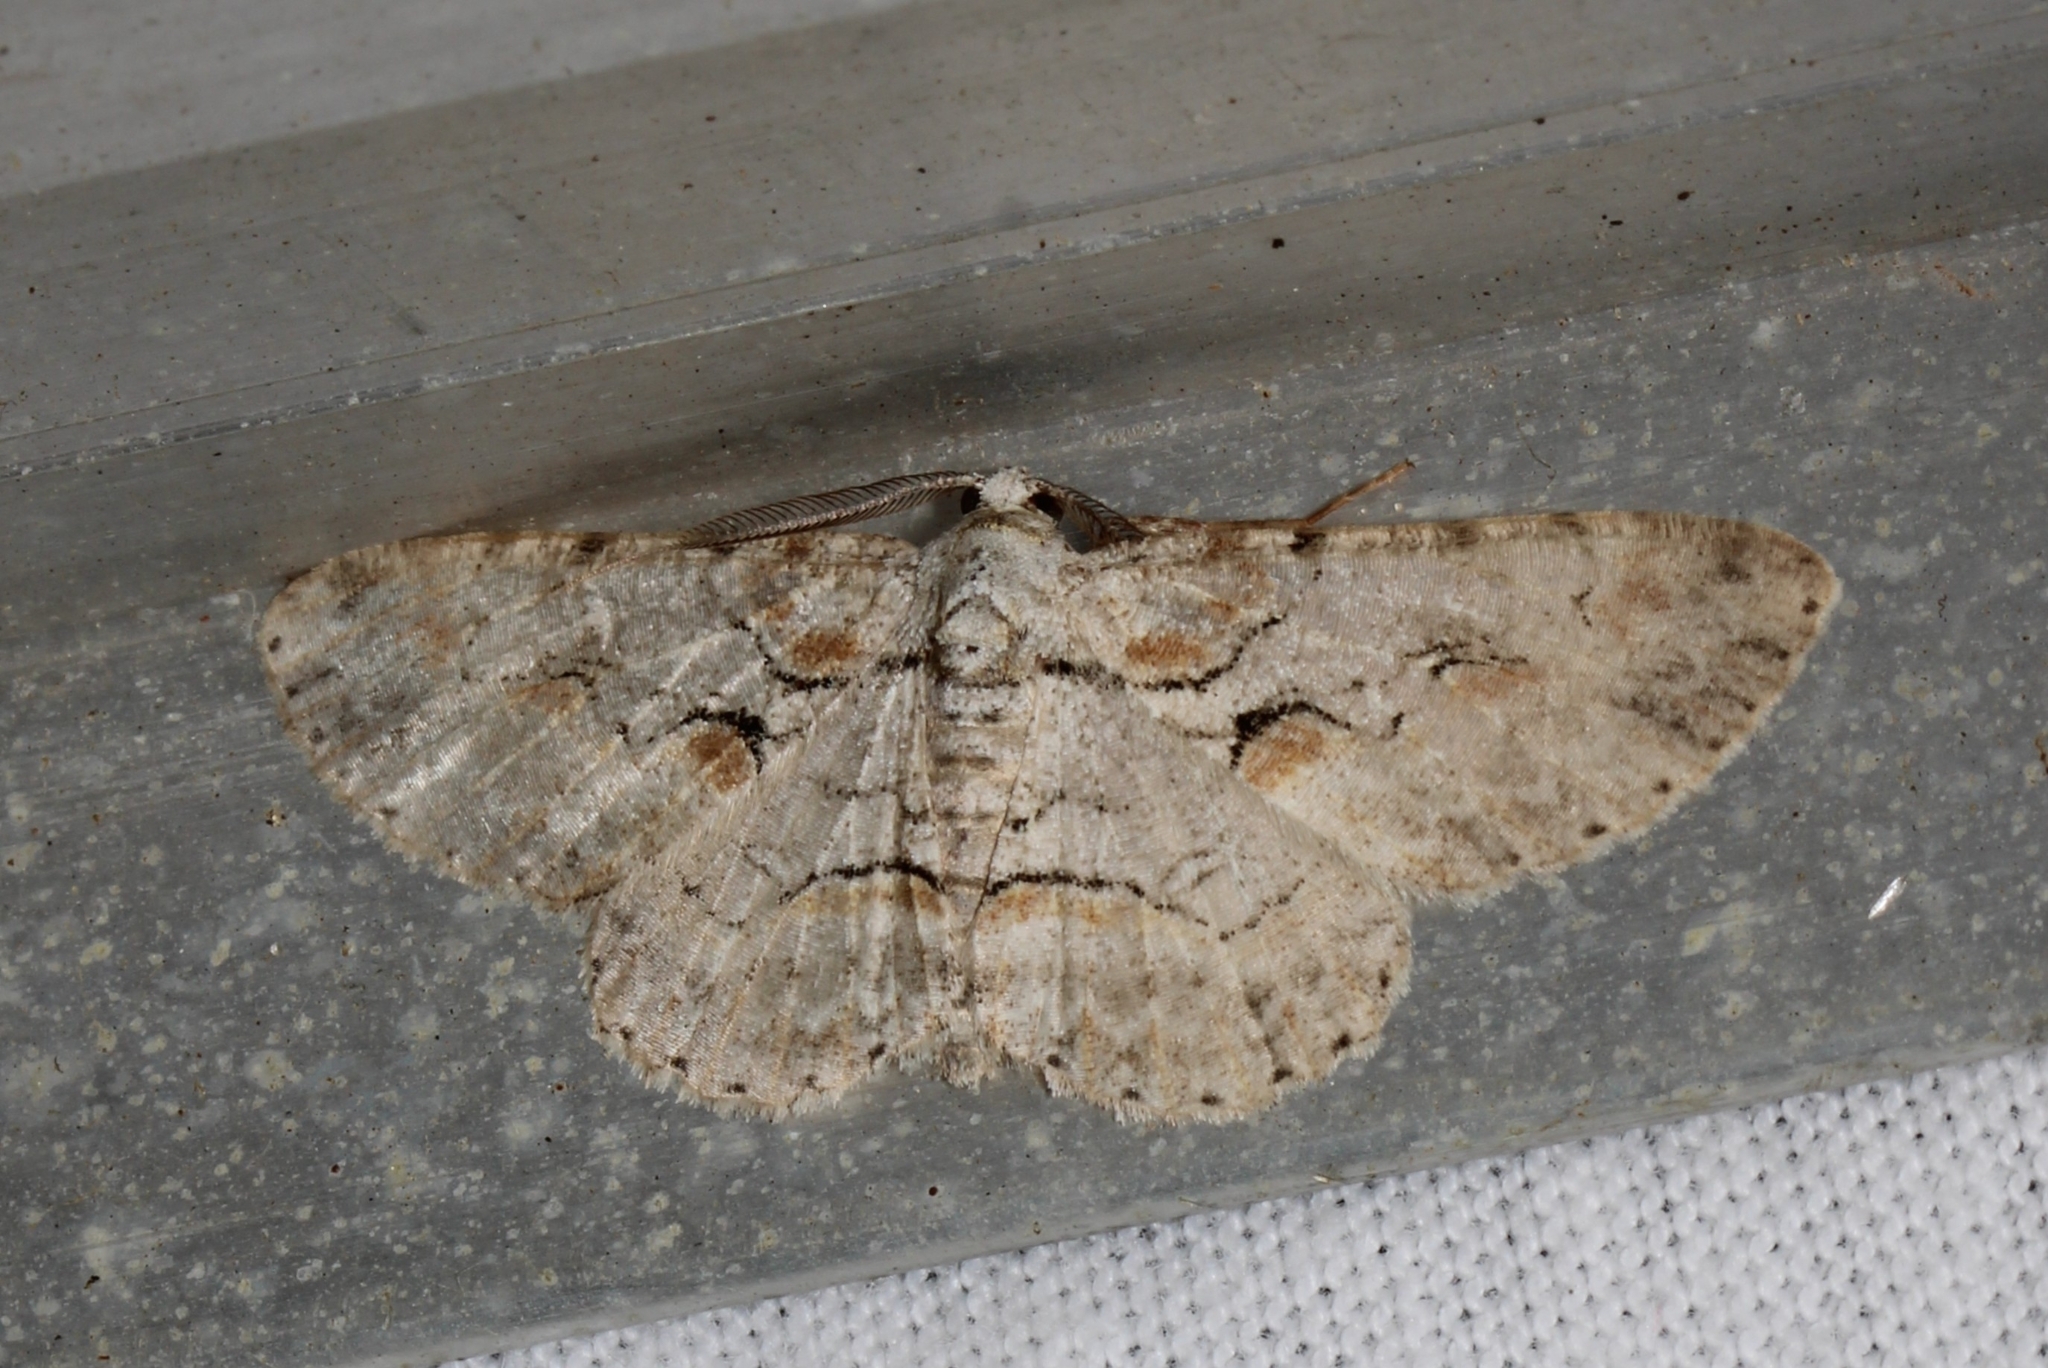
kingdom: Animalia
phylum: Arthropoda
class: Insecta
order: Lepidoptera
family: Geometridae
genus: Iridopsis
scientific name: Iridopsis defectaria
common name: Brown-shaded gray
